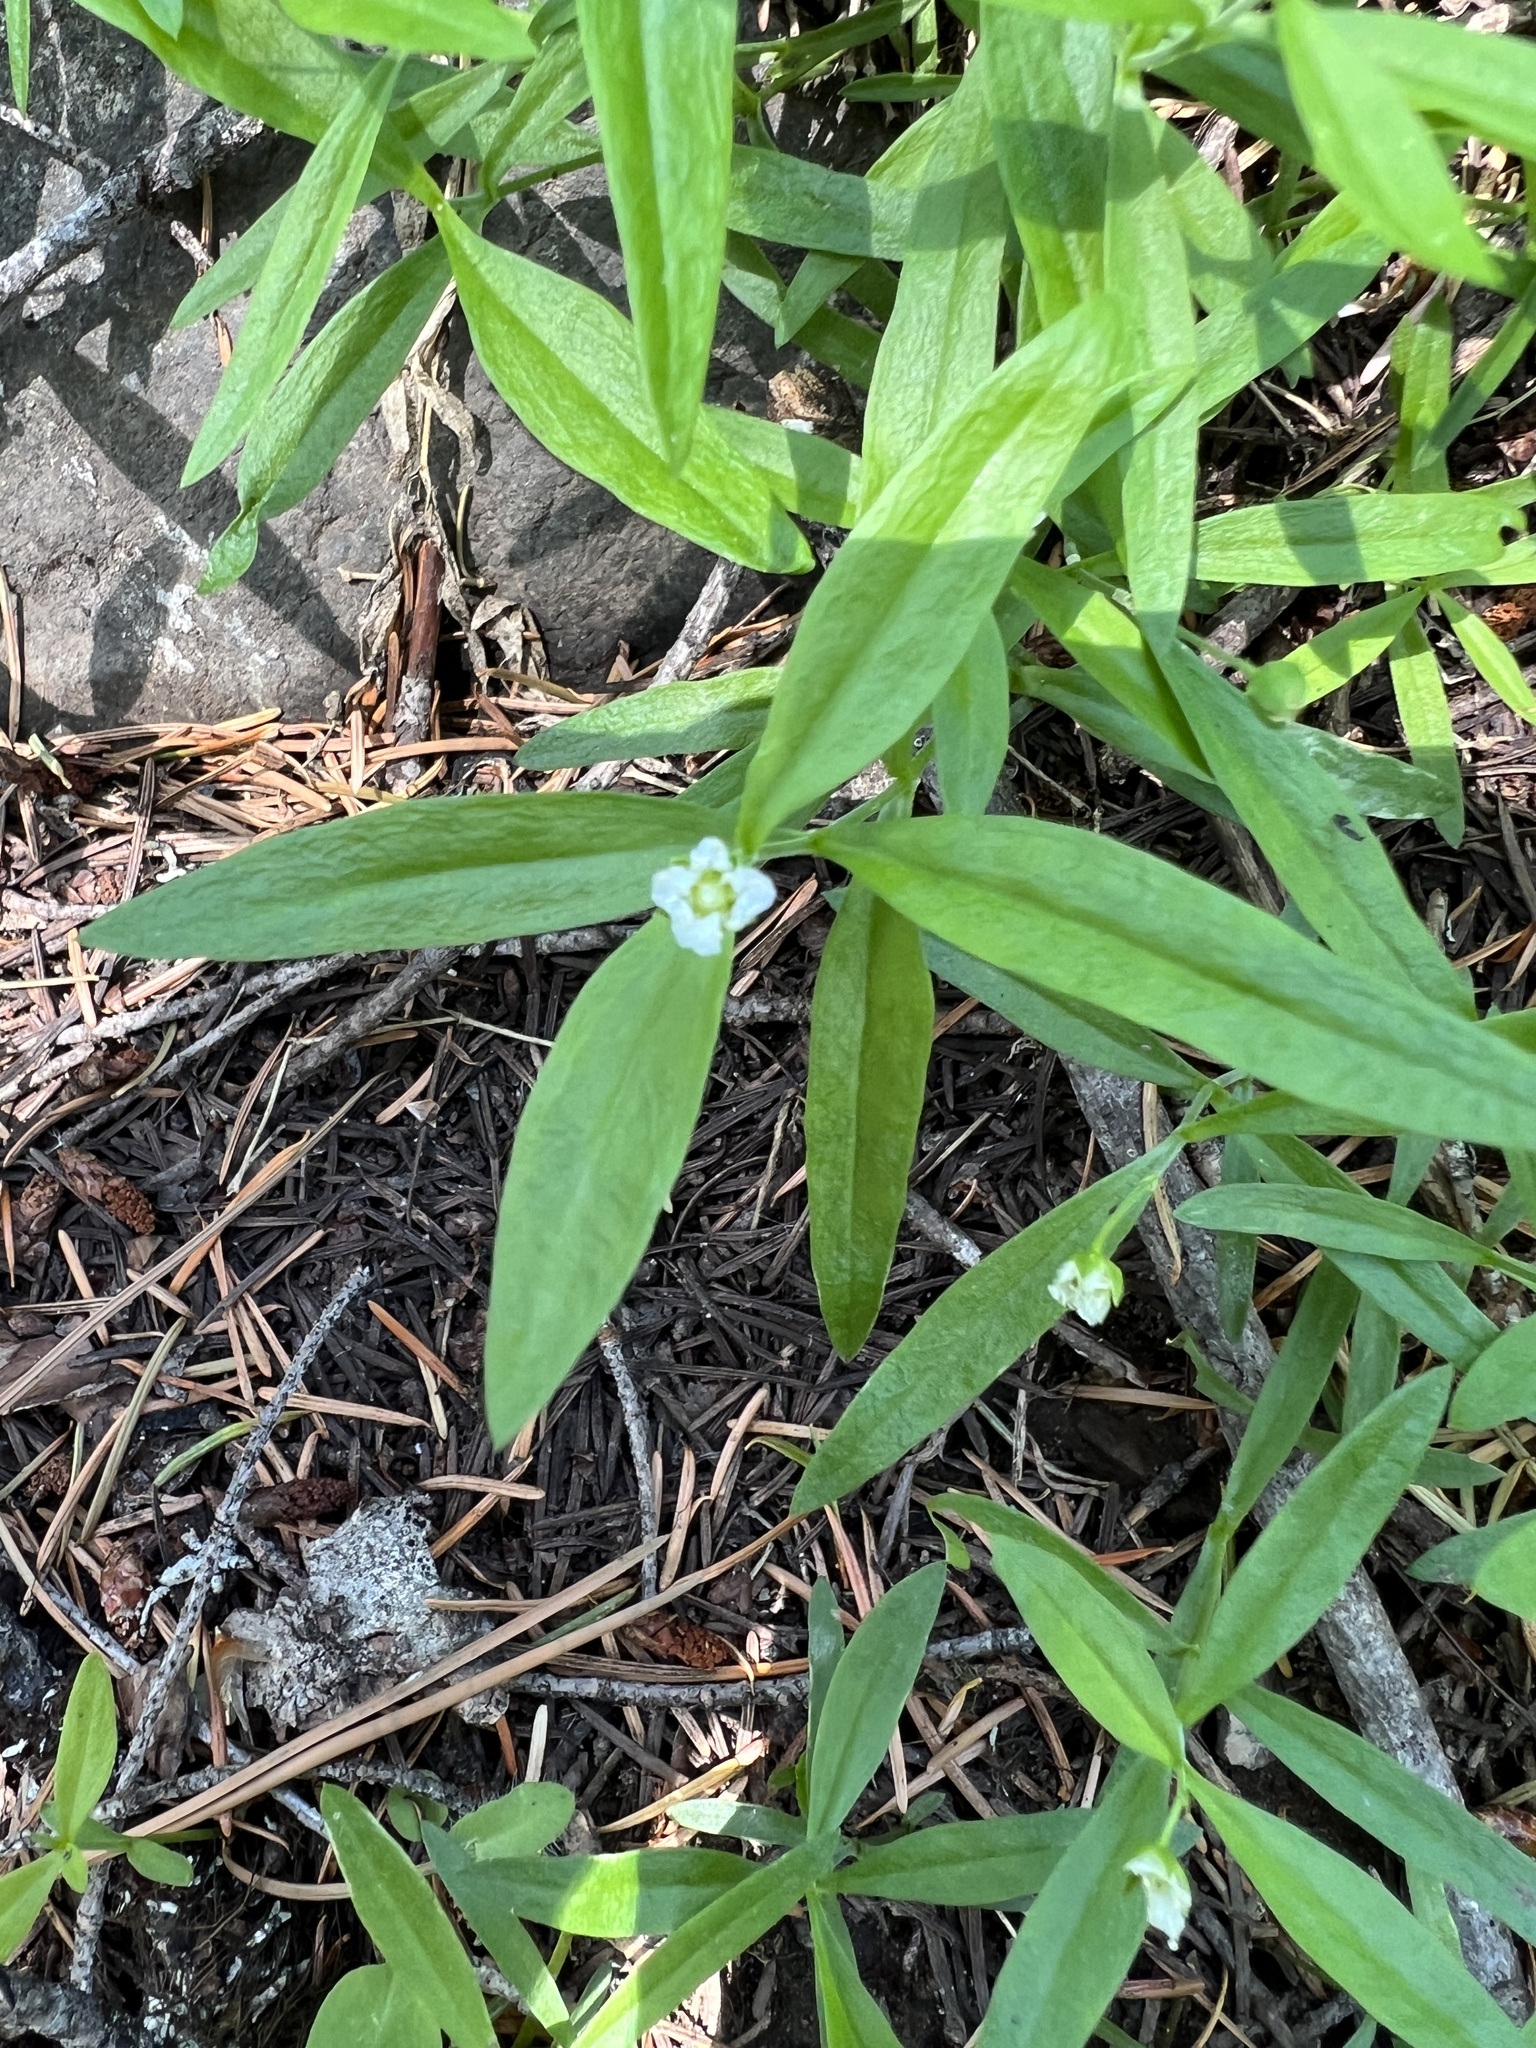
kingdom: Plantae
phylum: Tracheophyta
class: Magnoliopsida
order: Caryophyllales
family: Caryophyllaceae
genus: Moehringia
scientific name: Moehringia macrophylla
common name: Big-leaf sandwort
